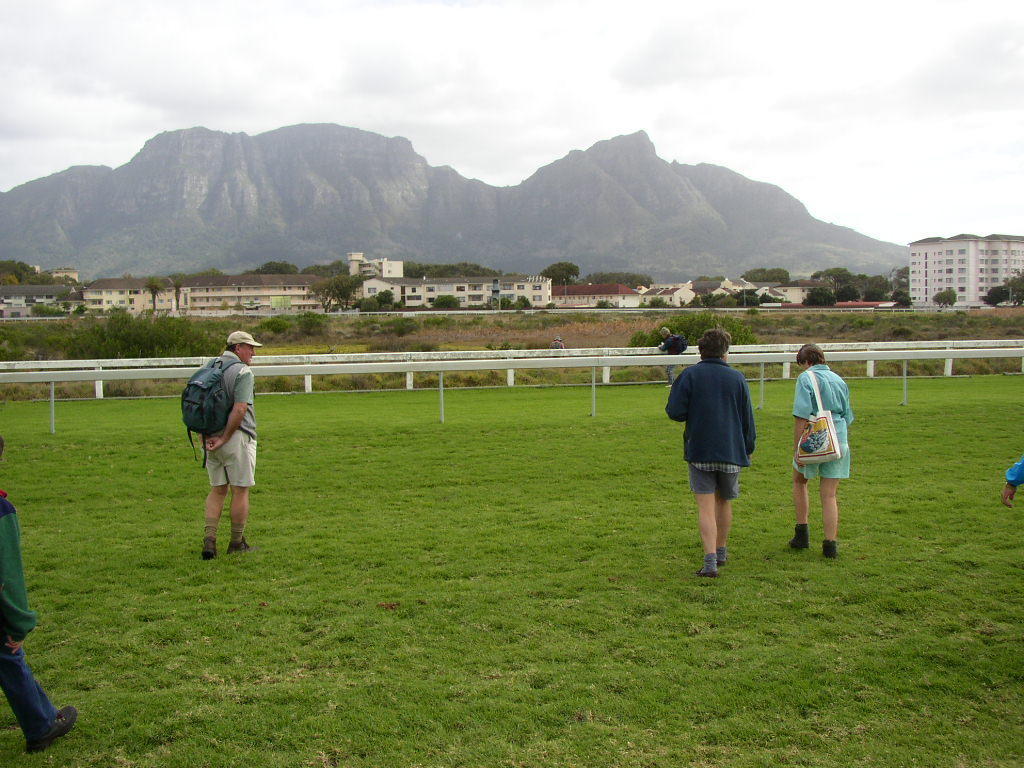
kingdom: Plantae
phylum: Tracheophyta
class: Liliopsida
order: Poales
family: Poaceae
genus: Cenchrus
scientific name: Cenchrus clandestinus
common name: Kikuyugrass
